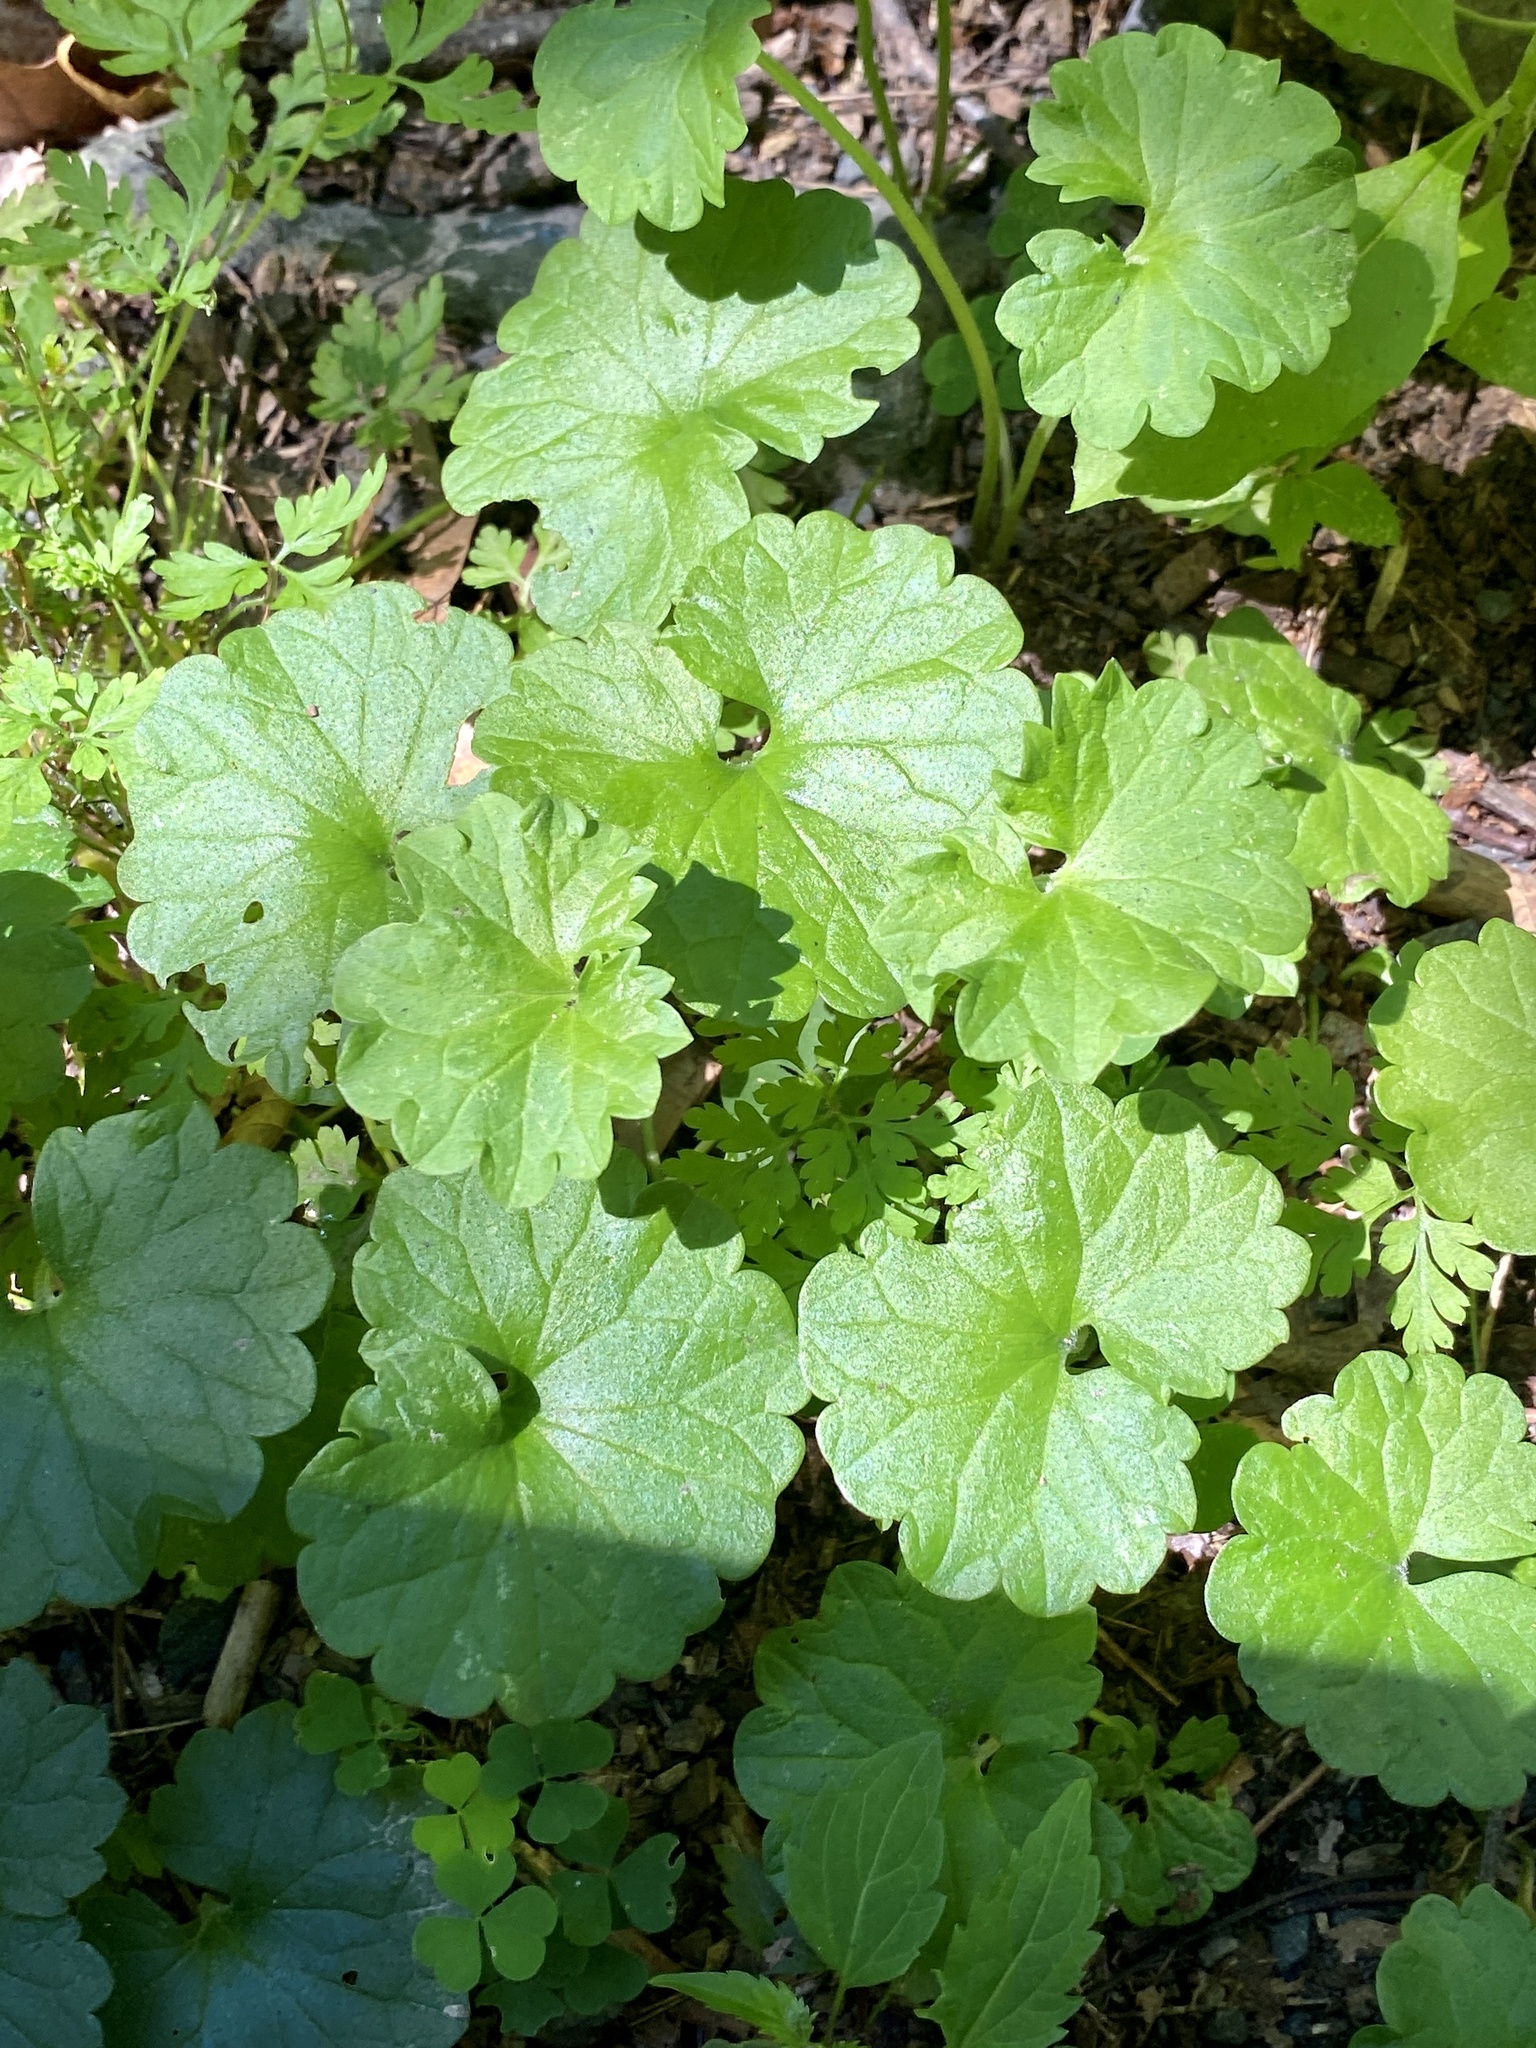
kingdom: Plantae
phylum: Tracheophyta
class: Magnoliopsida
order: Lamiales
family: Lamiaceae
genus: Glechoma
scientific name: Glechoma hederacea
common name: Ground ivy
